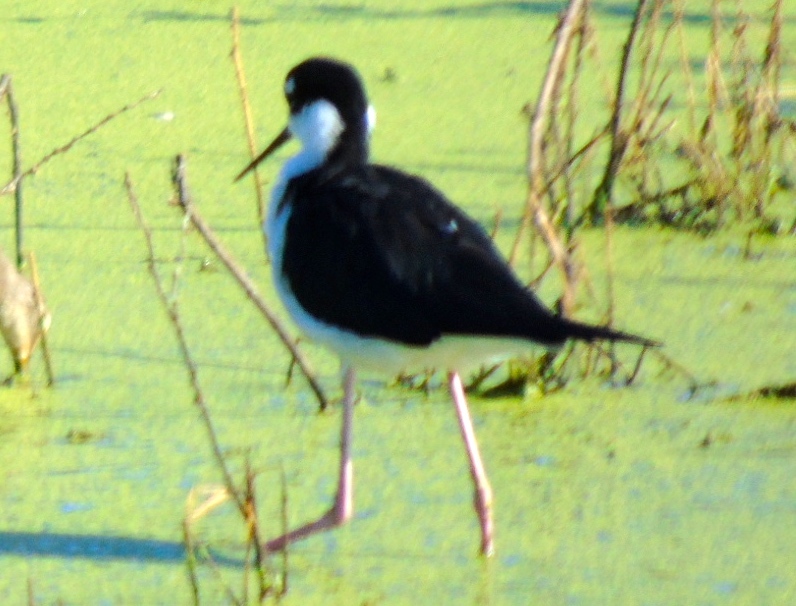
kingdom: Animalia
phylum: Chordata
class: Aves
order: Charadriiformes
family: Recurvirostridae
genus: Himantopus
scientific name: Himantopus mexicanus
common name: Black-necked stilt
